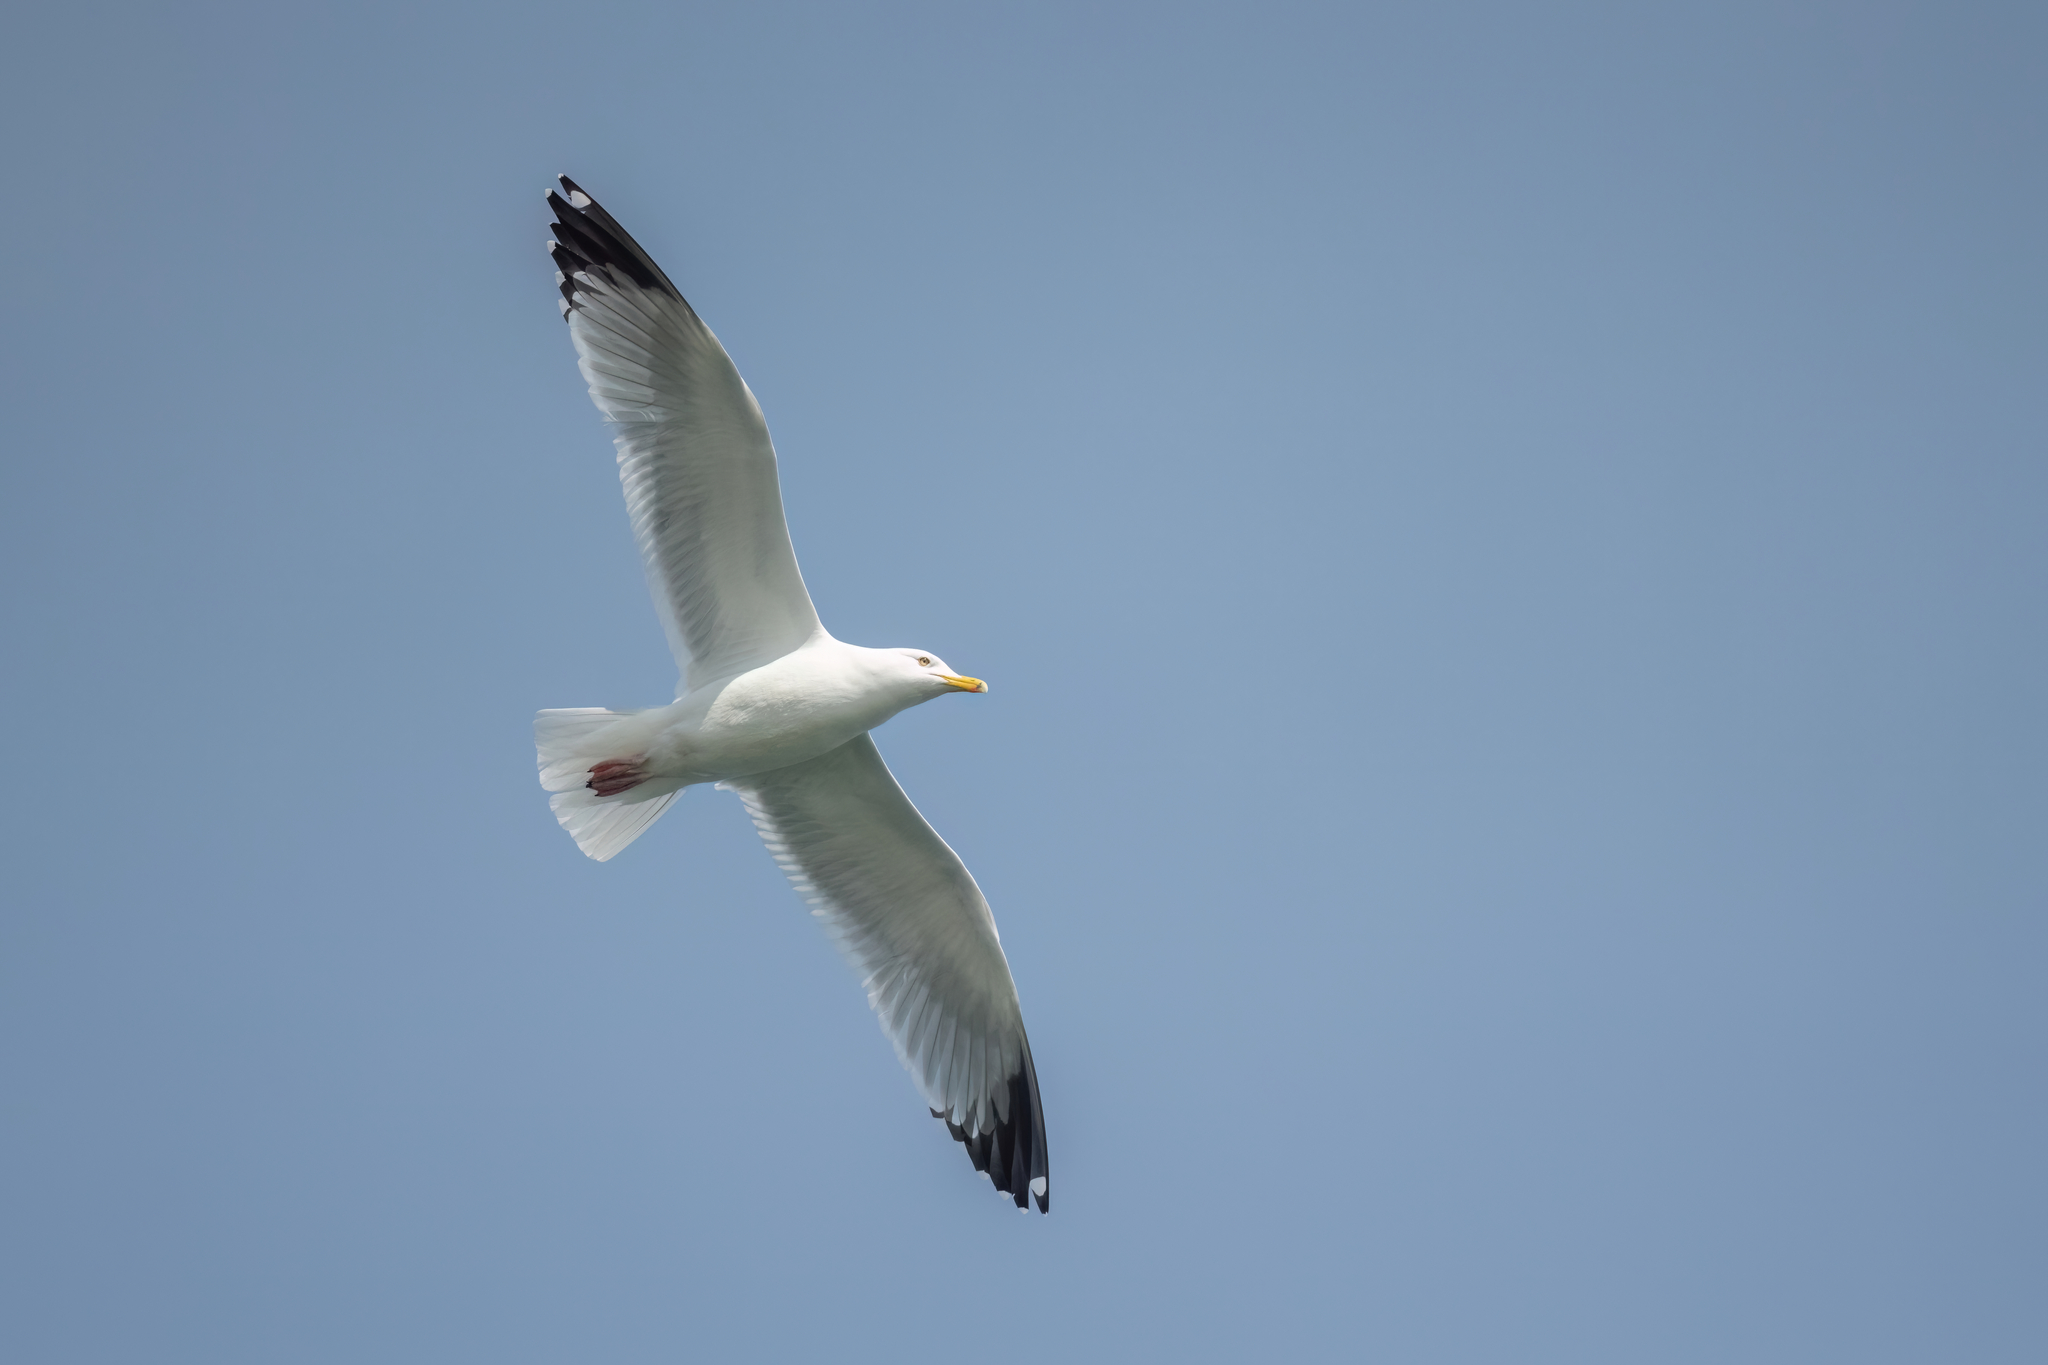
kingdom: Animalia
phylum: Chordata
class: Aves
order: Charadriiformes
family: Laridae
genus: Larus
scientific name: Larus argentatus
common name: Herring gull
